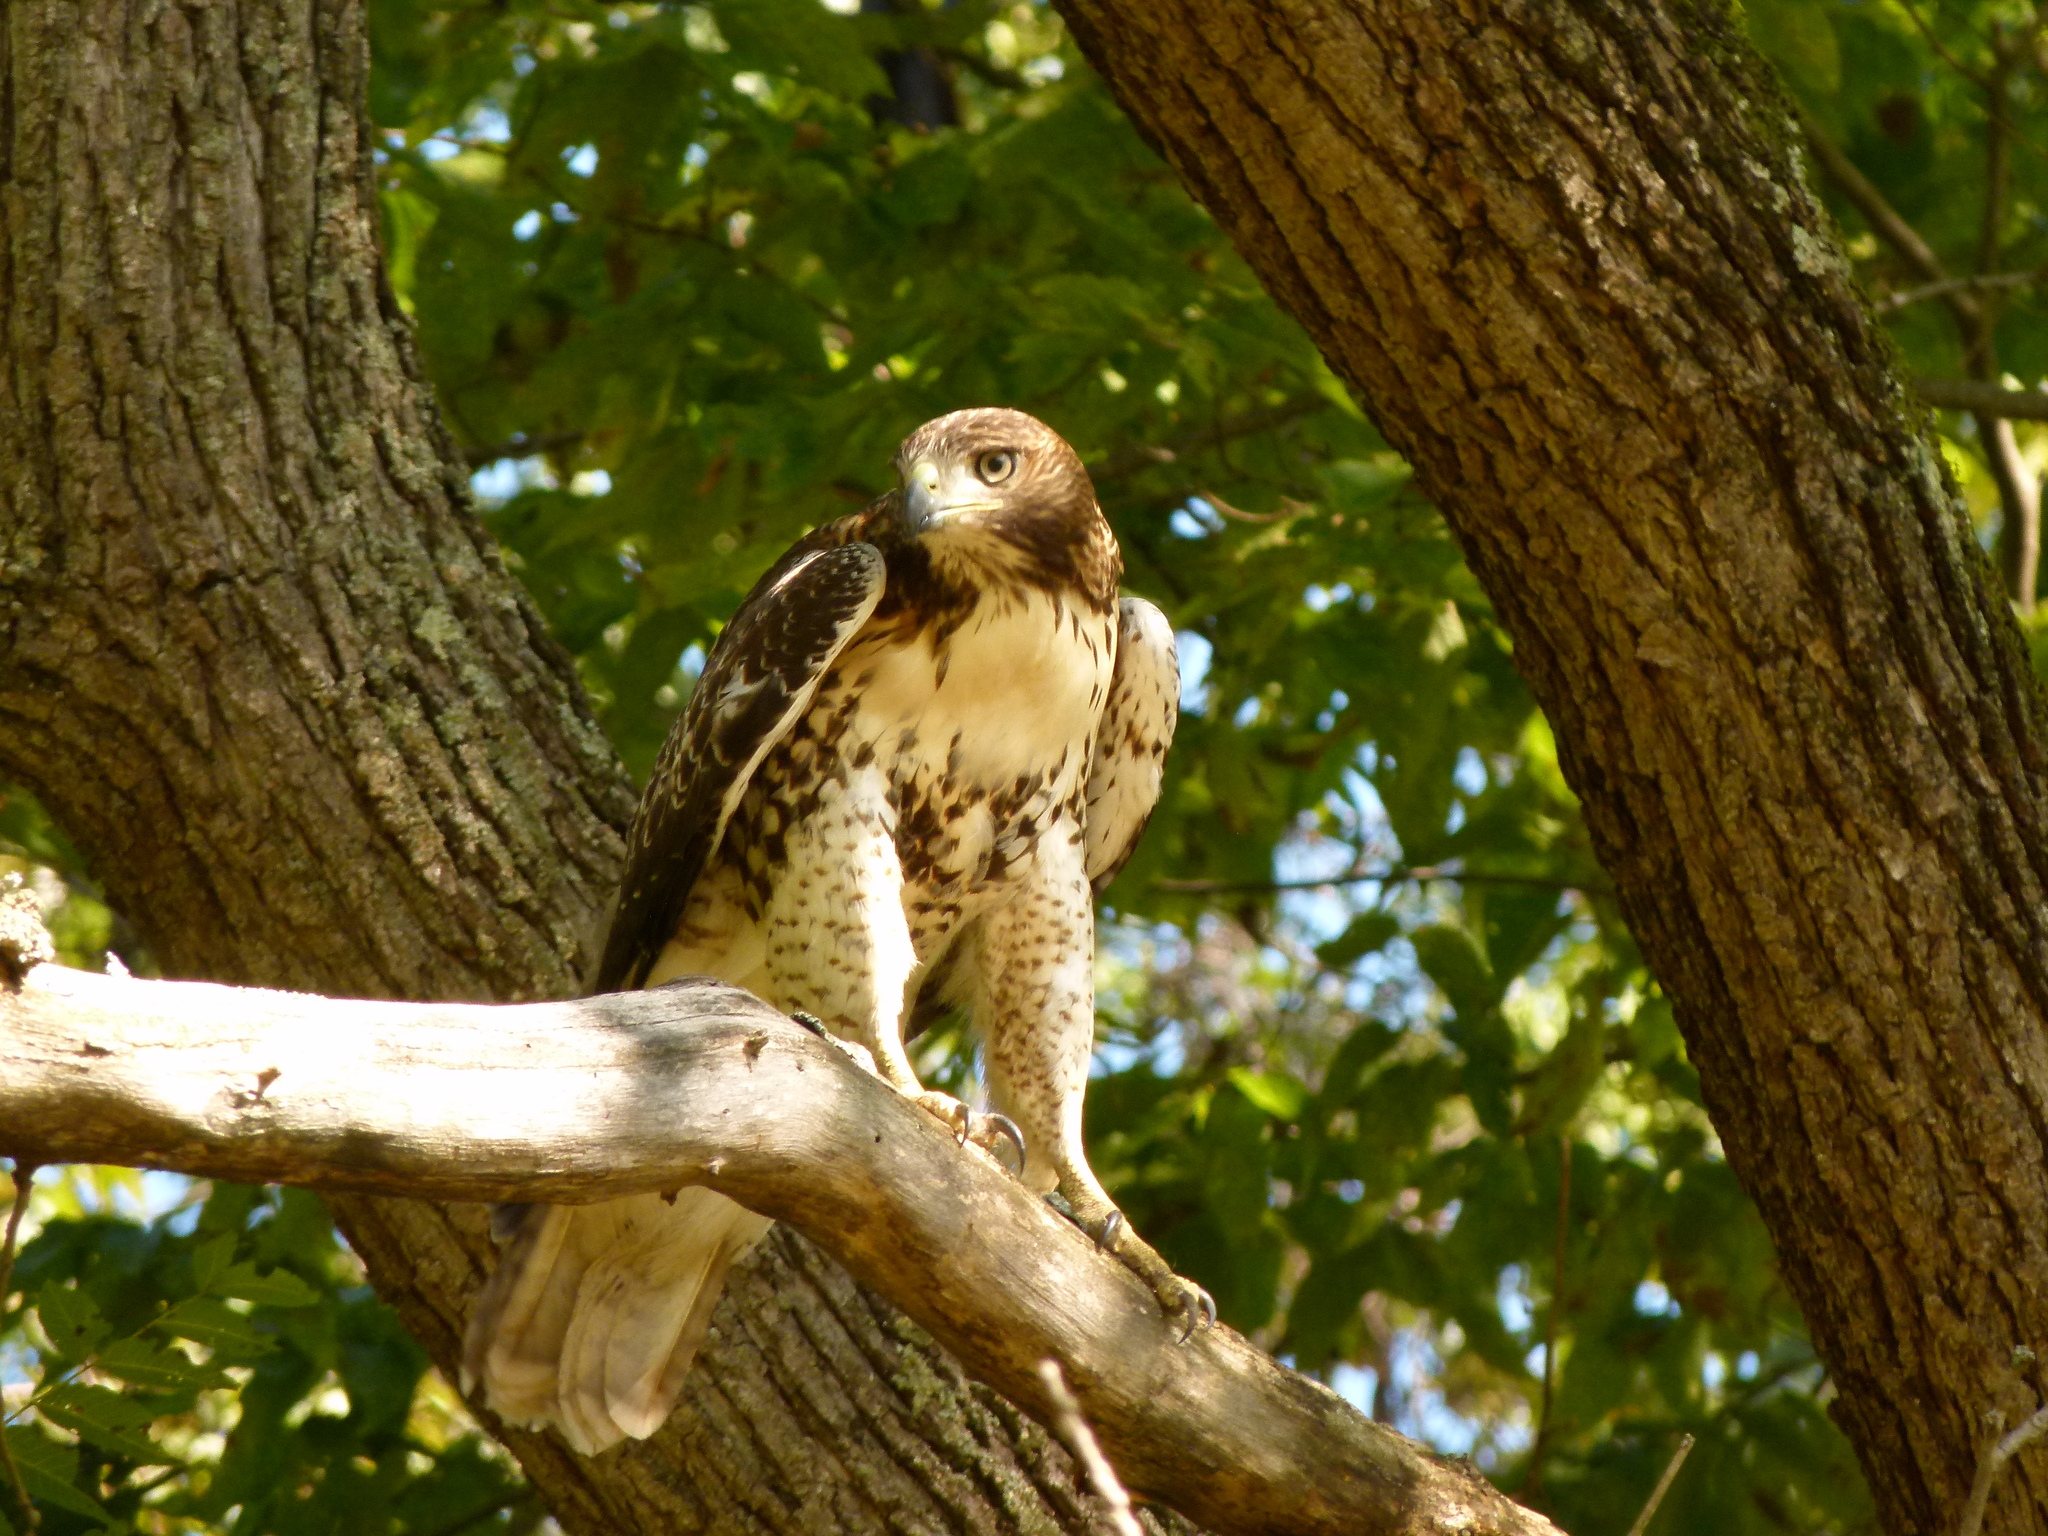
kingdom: Animalia
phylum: Chordata
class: Aves
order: Accipitriformes
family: Accipitridae
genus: Buteo
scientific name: Buteo jamaicensis
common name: Red-tailed hawk
